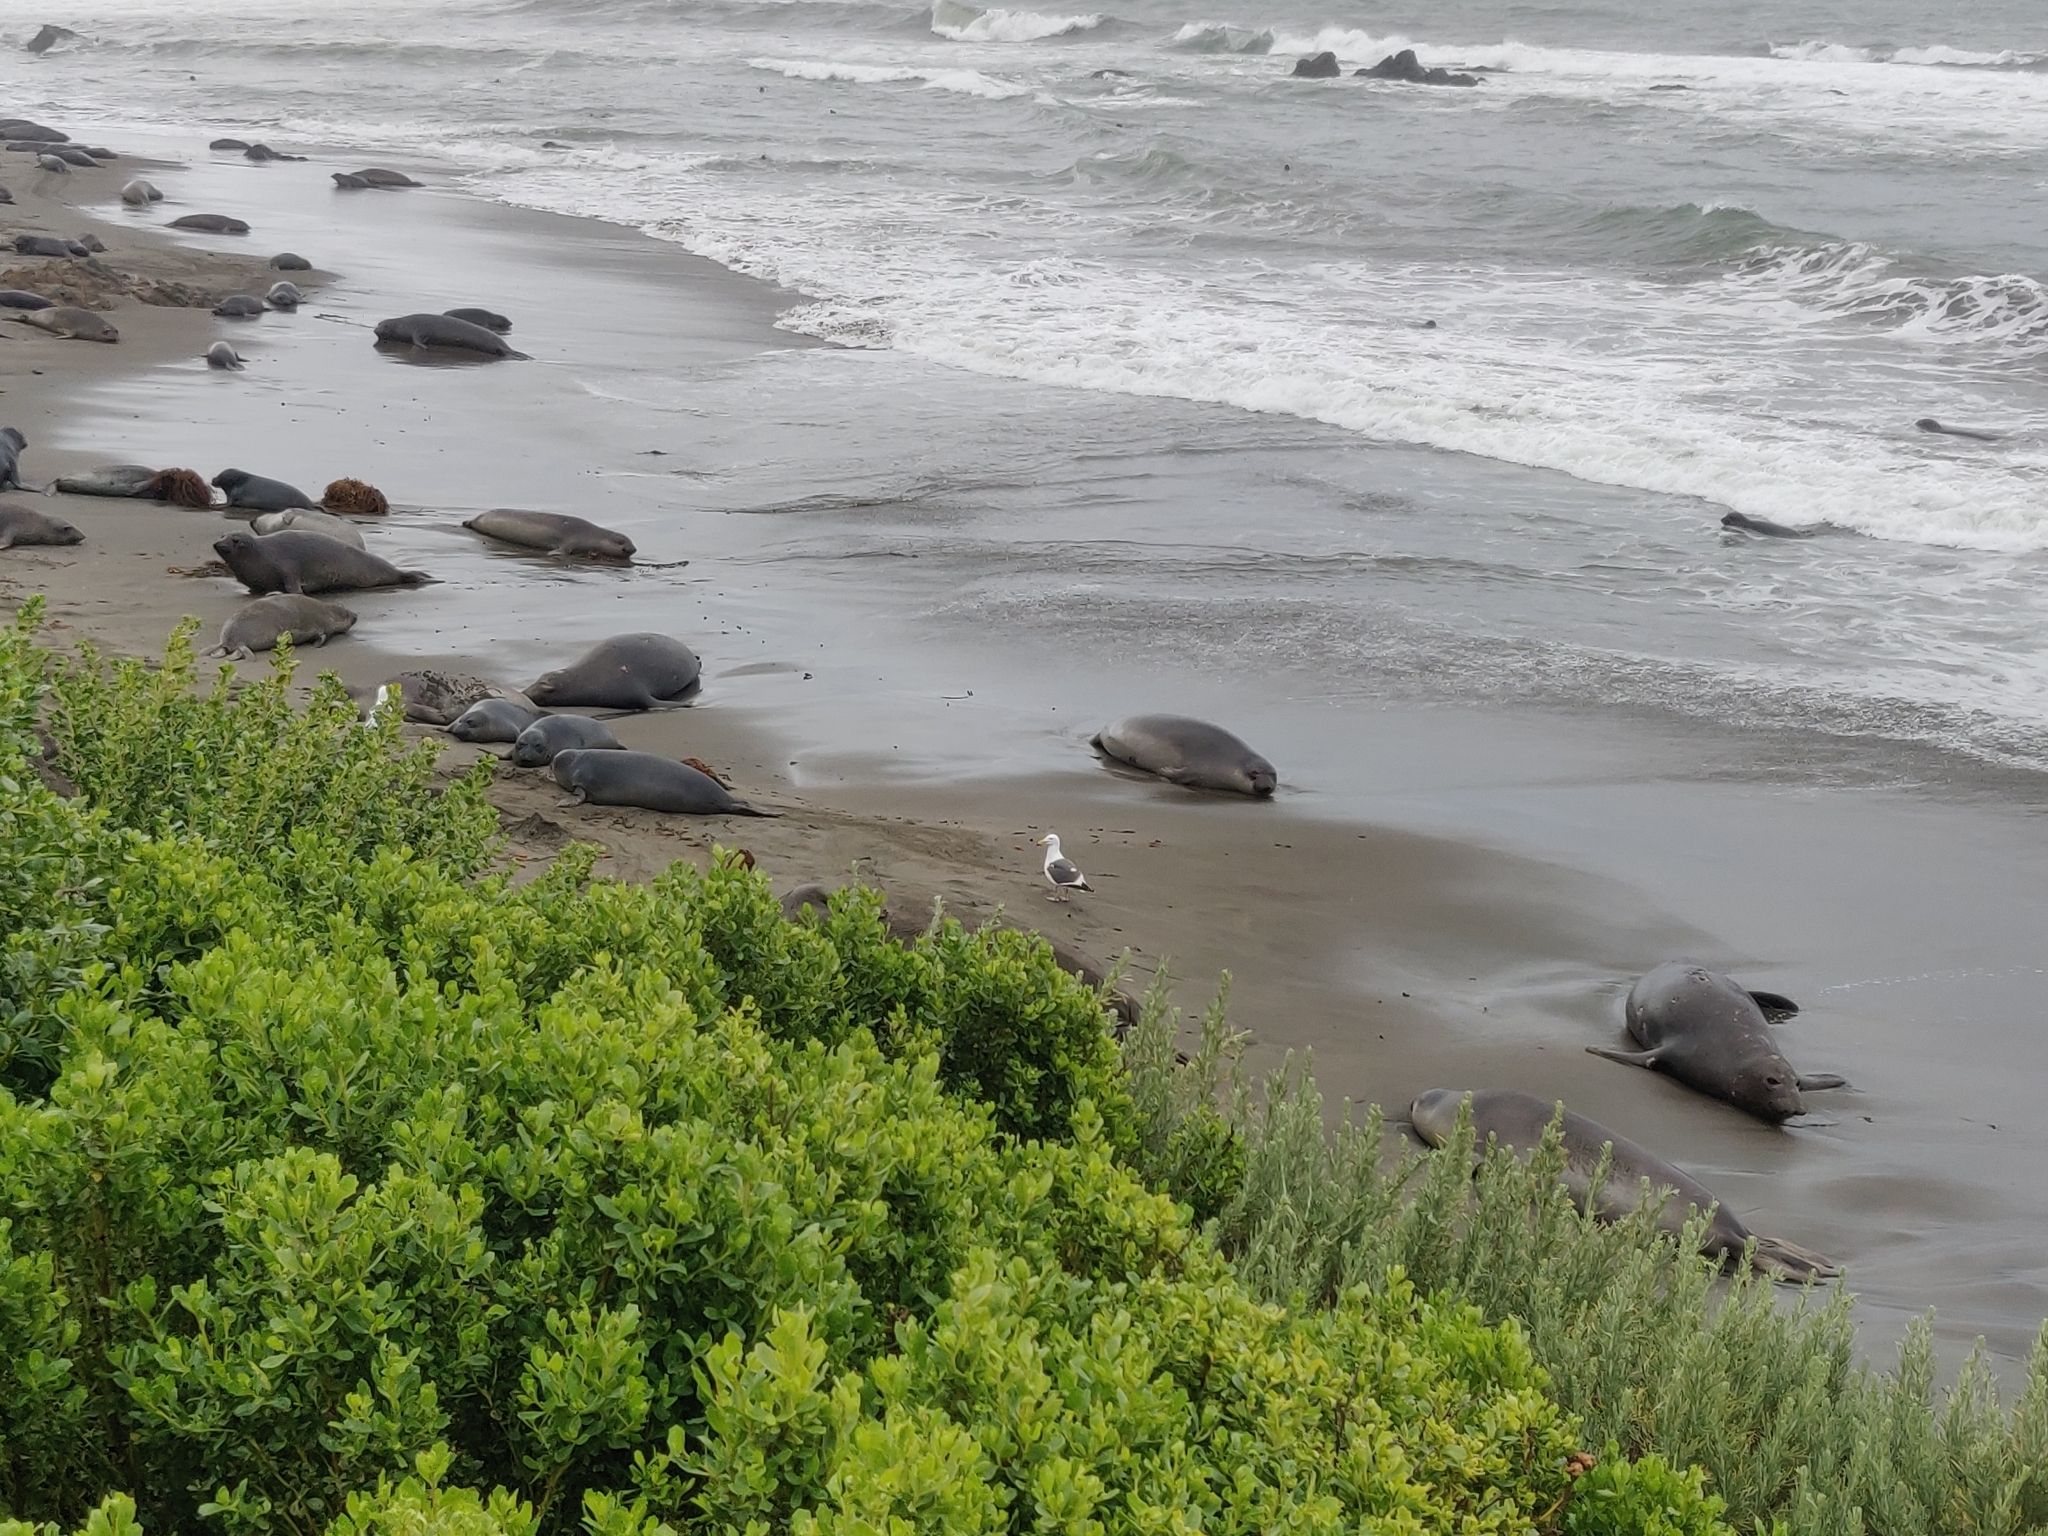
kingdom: Animalia
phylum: Chordata
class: Aves
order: Charadriiformes
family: Laridae
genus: Larus
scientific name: Larus occidentalis
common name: Western gull
